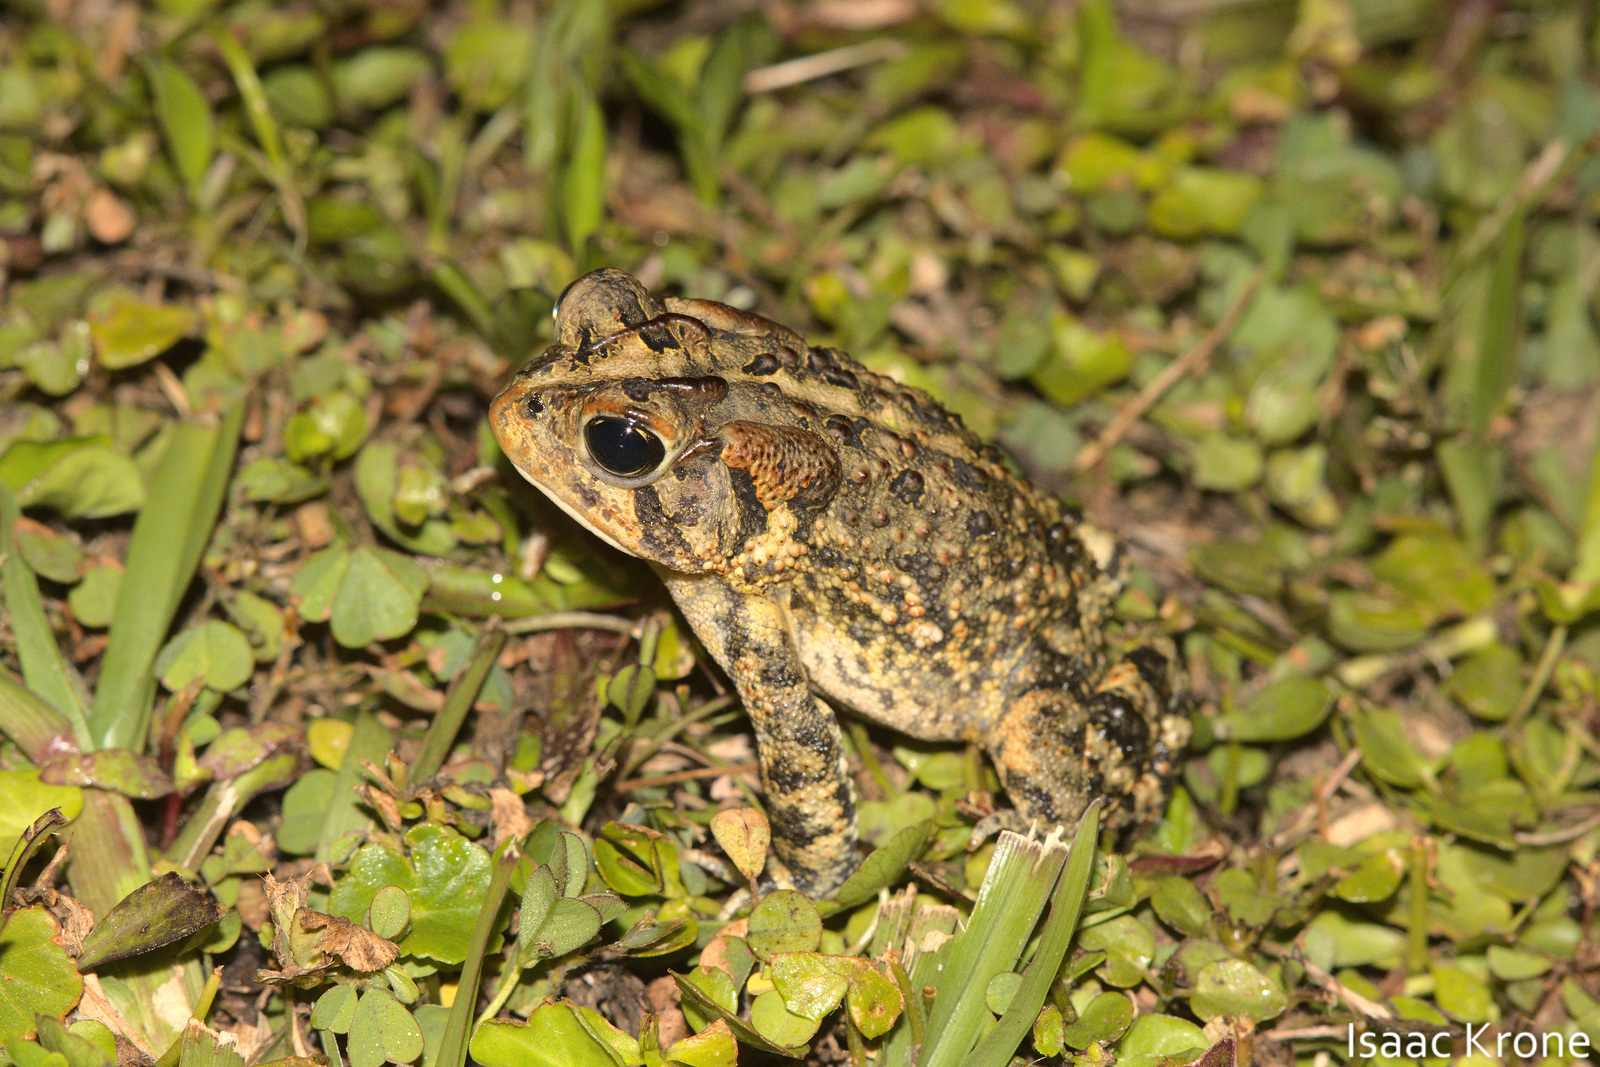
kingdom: Animalia
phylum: Chordata
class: Amphibia
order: Anura
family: Bufonidae
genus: Anaxyrus
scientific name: Anaxyrus terrestris
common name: Southern toad
